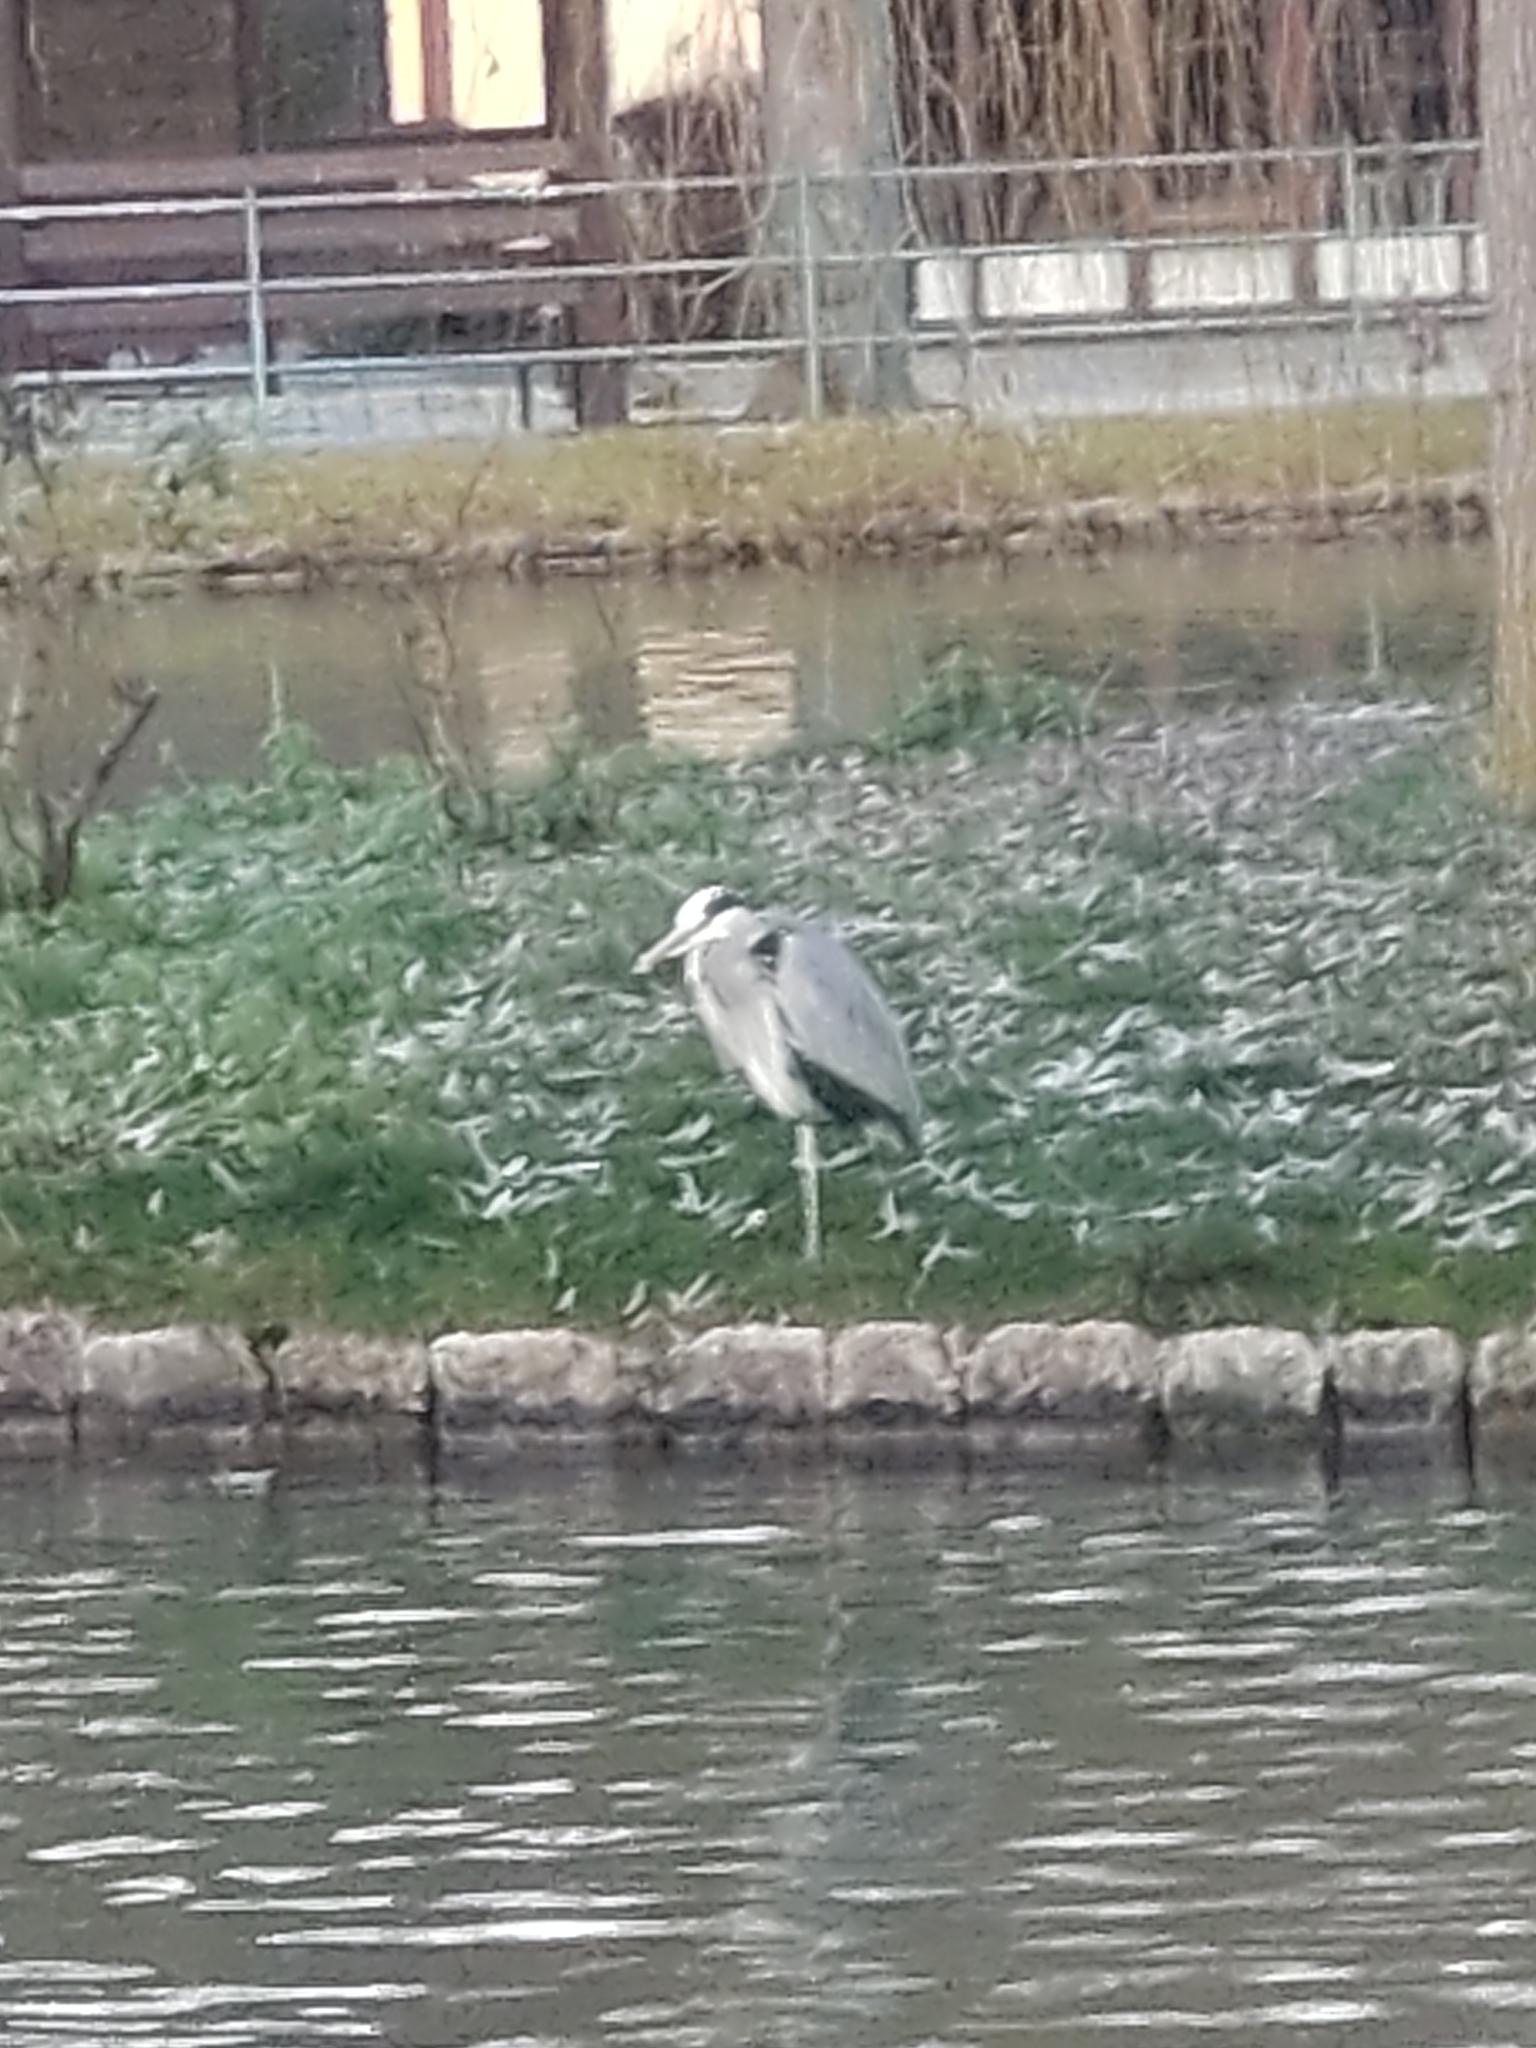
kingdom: Animalia
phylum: Chordata
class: Aves
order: Pelecaniformes
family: Ardeidae
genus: Ardea
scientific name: Ardea cinerea
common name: Grey heron
